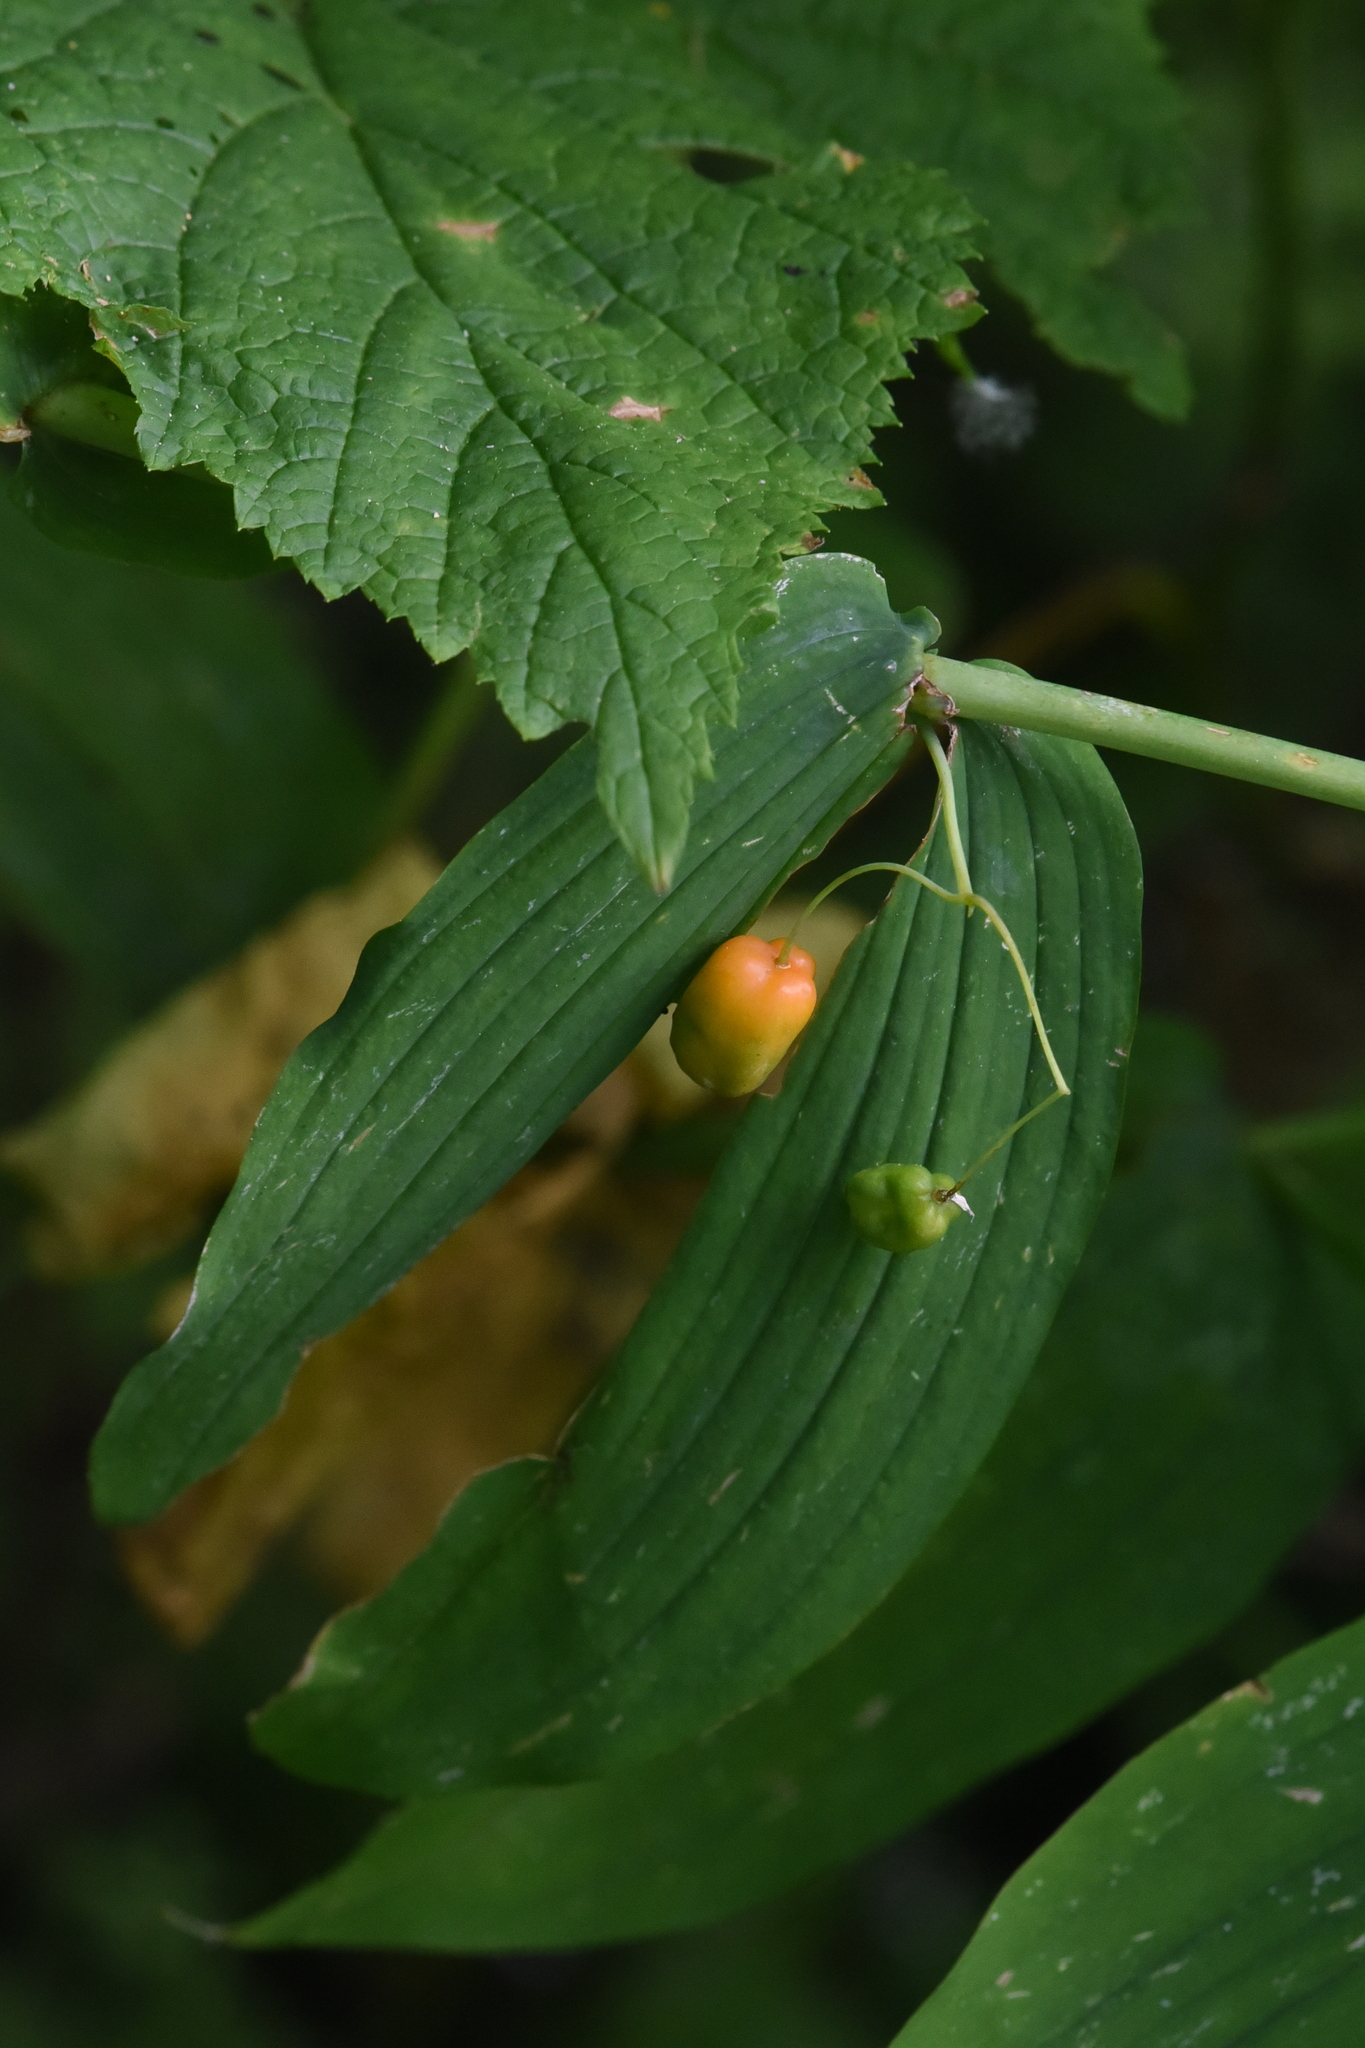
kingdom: Plantae
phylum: Tracheophyta
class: Liliopsida
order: Liliales
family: Liliaceae
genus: Streptopus
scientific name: Streptopus amplexifolius
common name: Clasp twisted stalk
